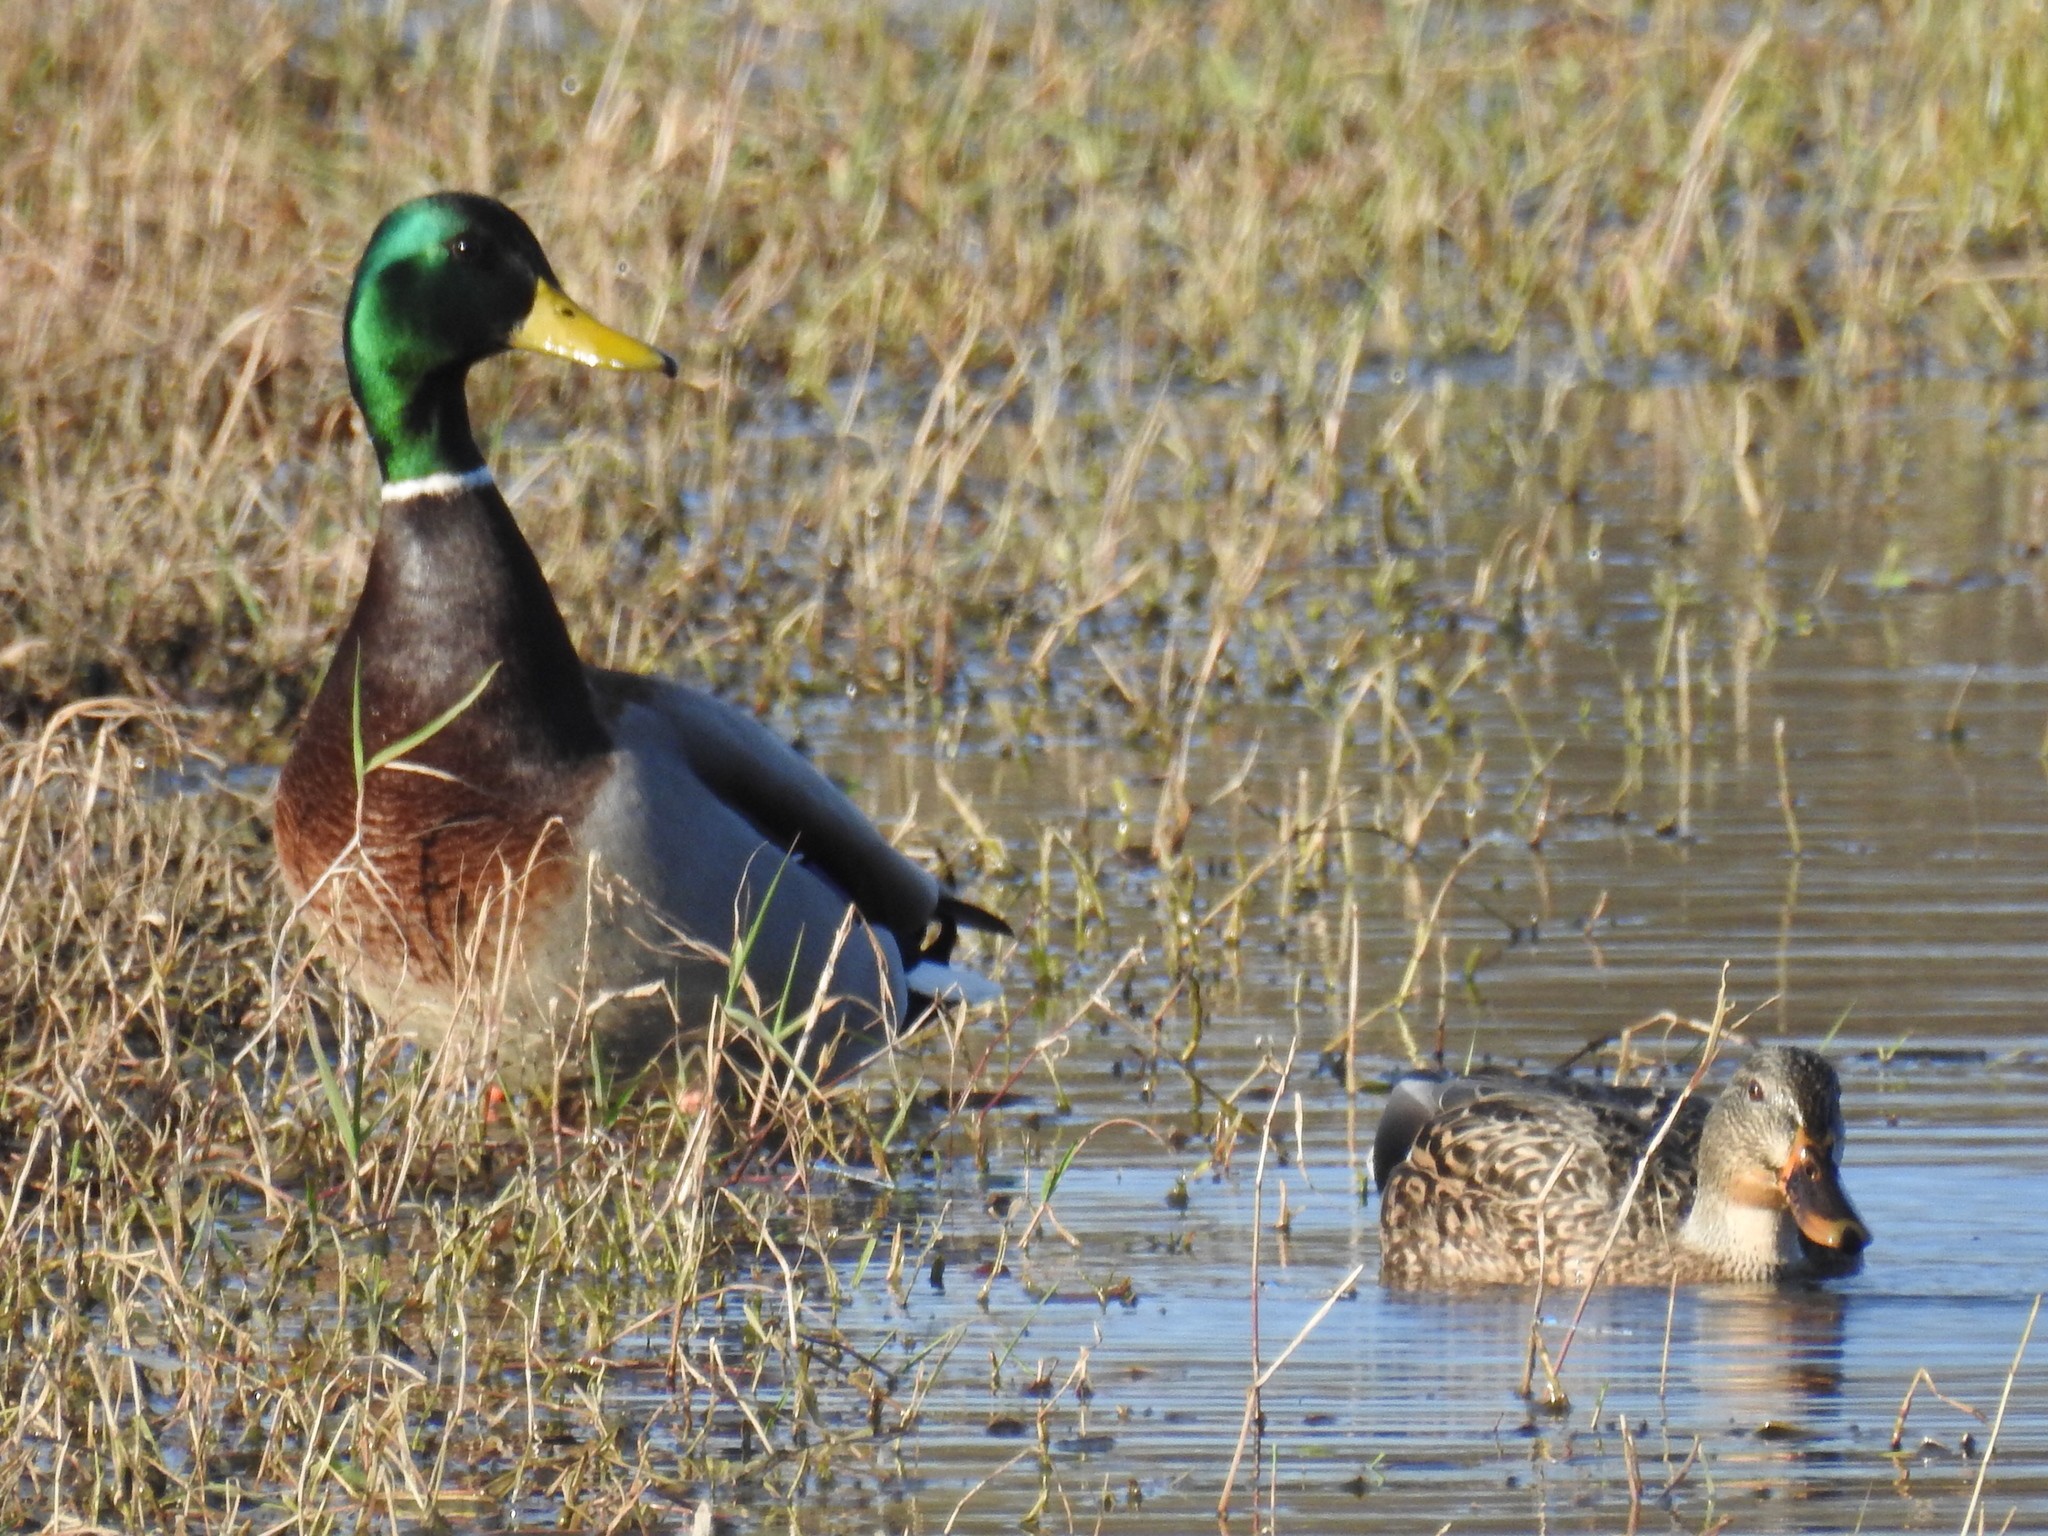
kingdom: Animalia
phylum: Chordata
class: Aves
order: Anseriformes
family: Anatidae
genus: Anas
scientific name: Anas platyrhynchos
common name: Mallard
